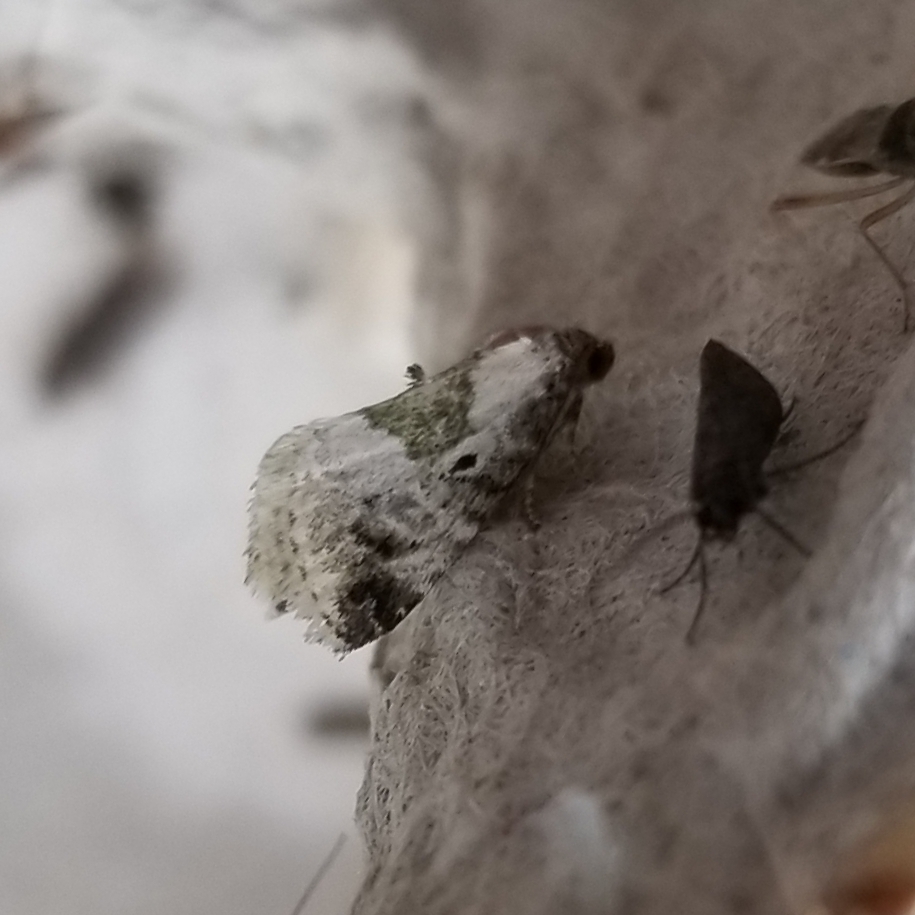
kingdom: Animalia
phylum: Arthropoda
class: Insecta
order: Lepidoptera
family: Noctuidae
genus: Maliattha
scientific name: Maliattha synochitis
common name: Black-dotted glyph
